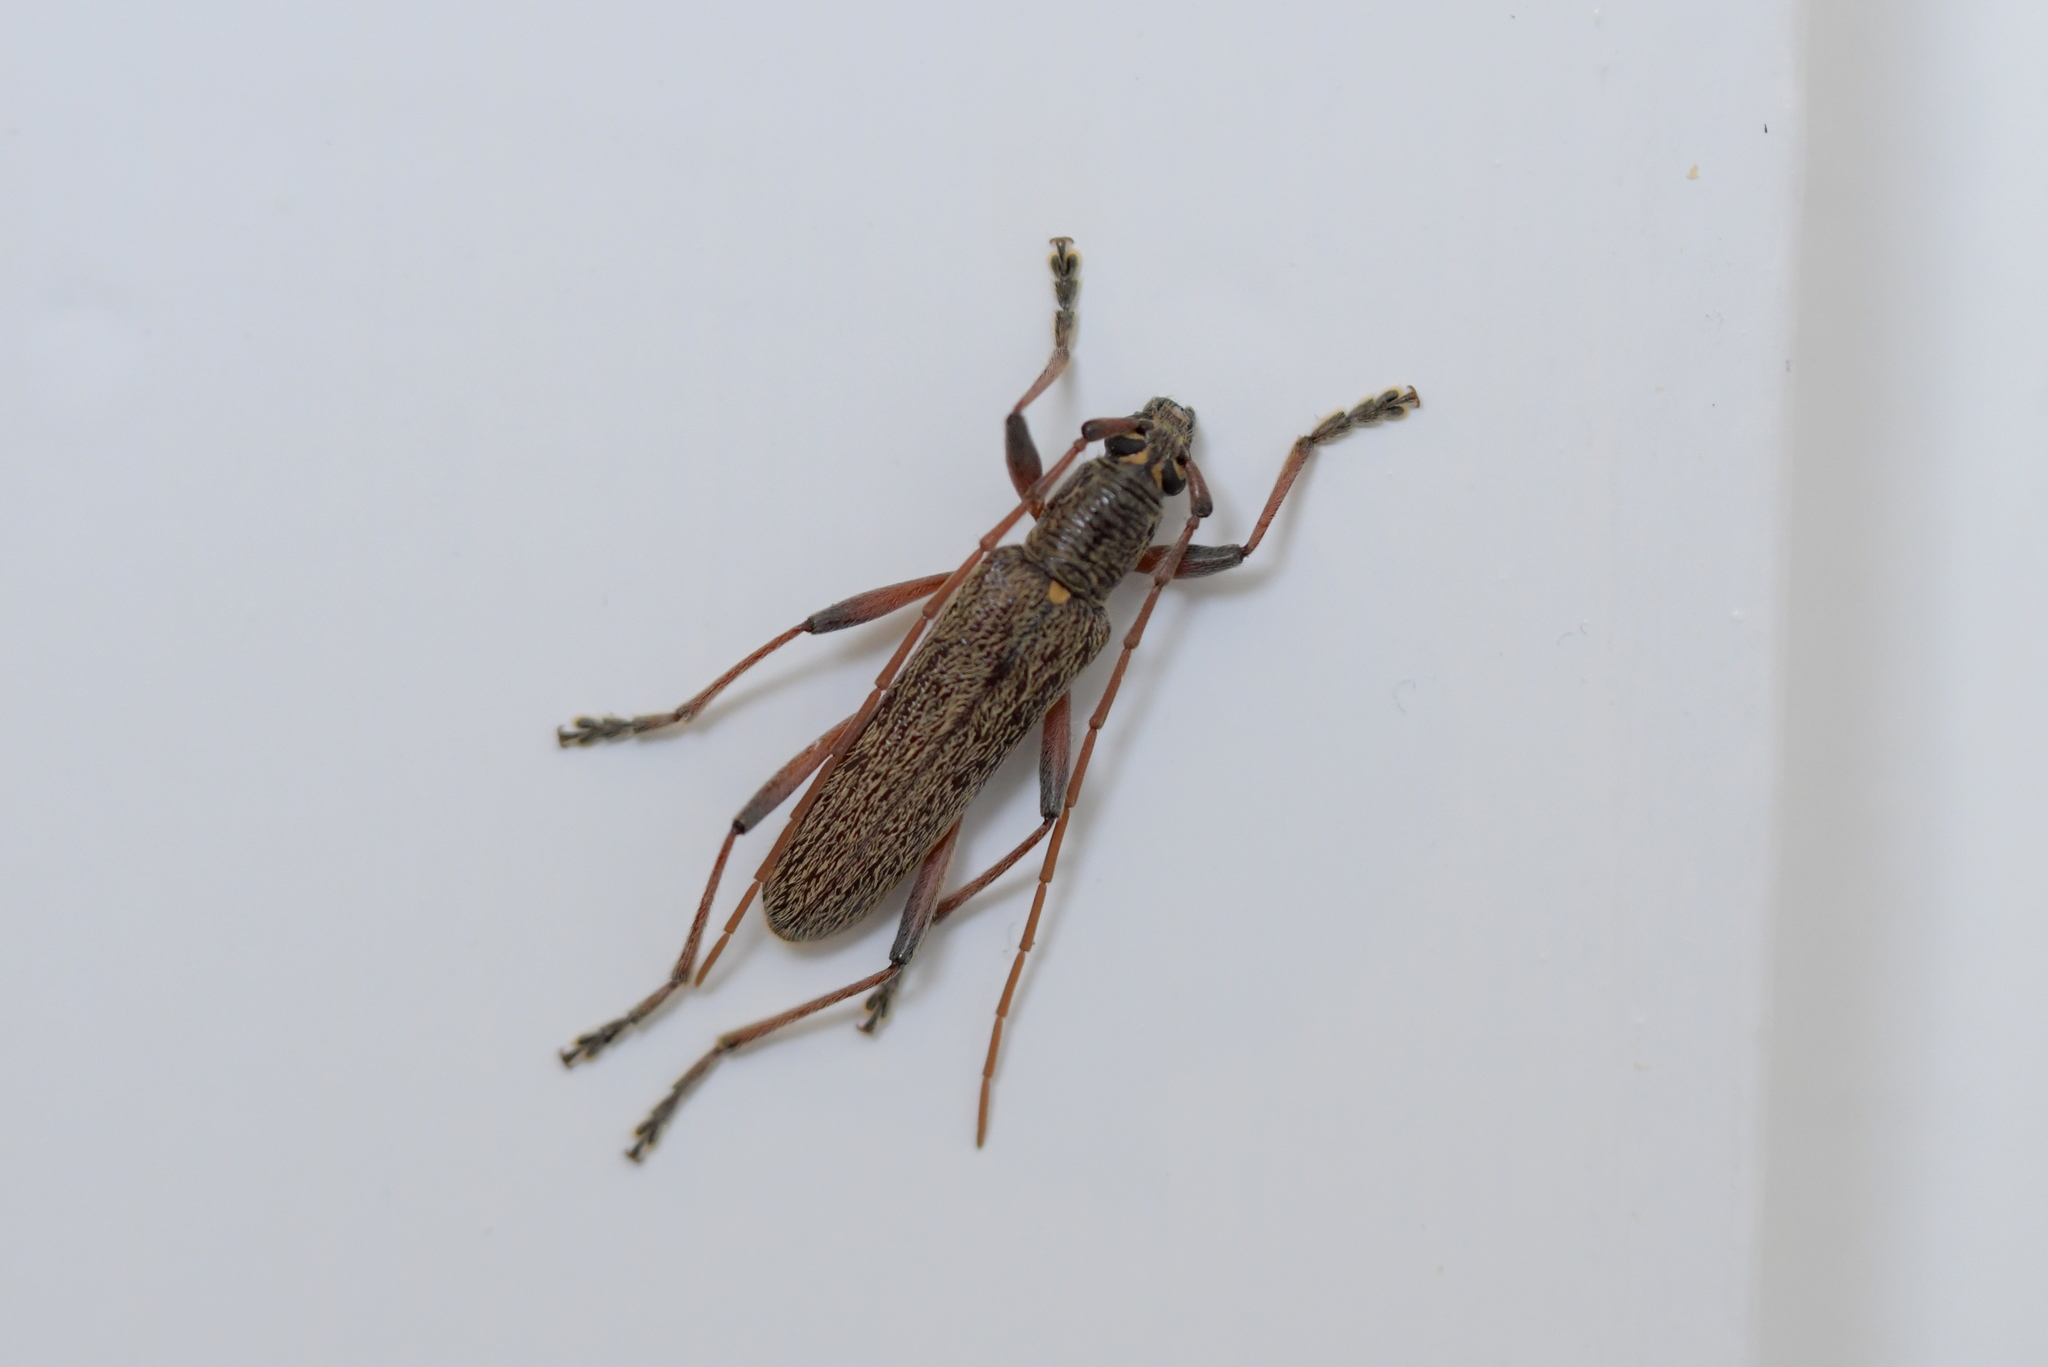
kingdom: Animalia
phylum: Arthropoda
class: Insecta
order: Coleoptera
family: Cerambycidae
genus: Oemona
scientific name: Oemona hirta
